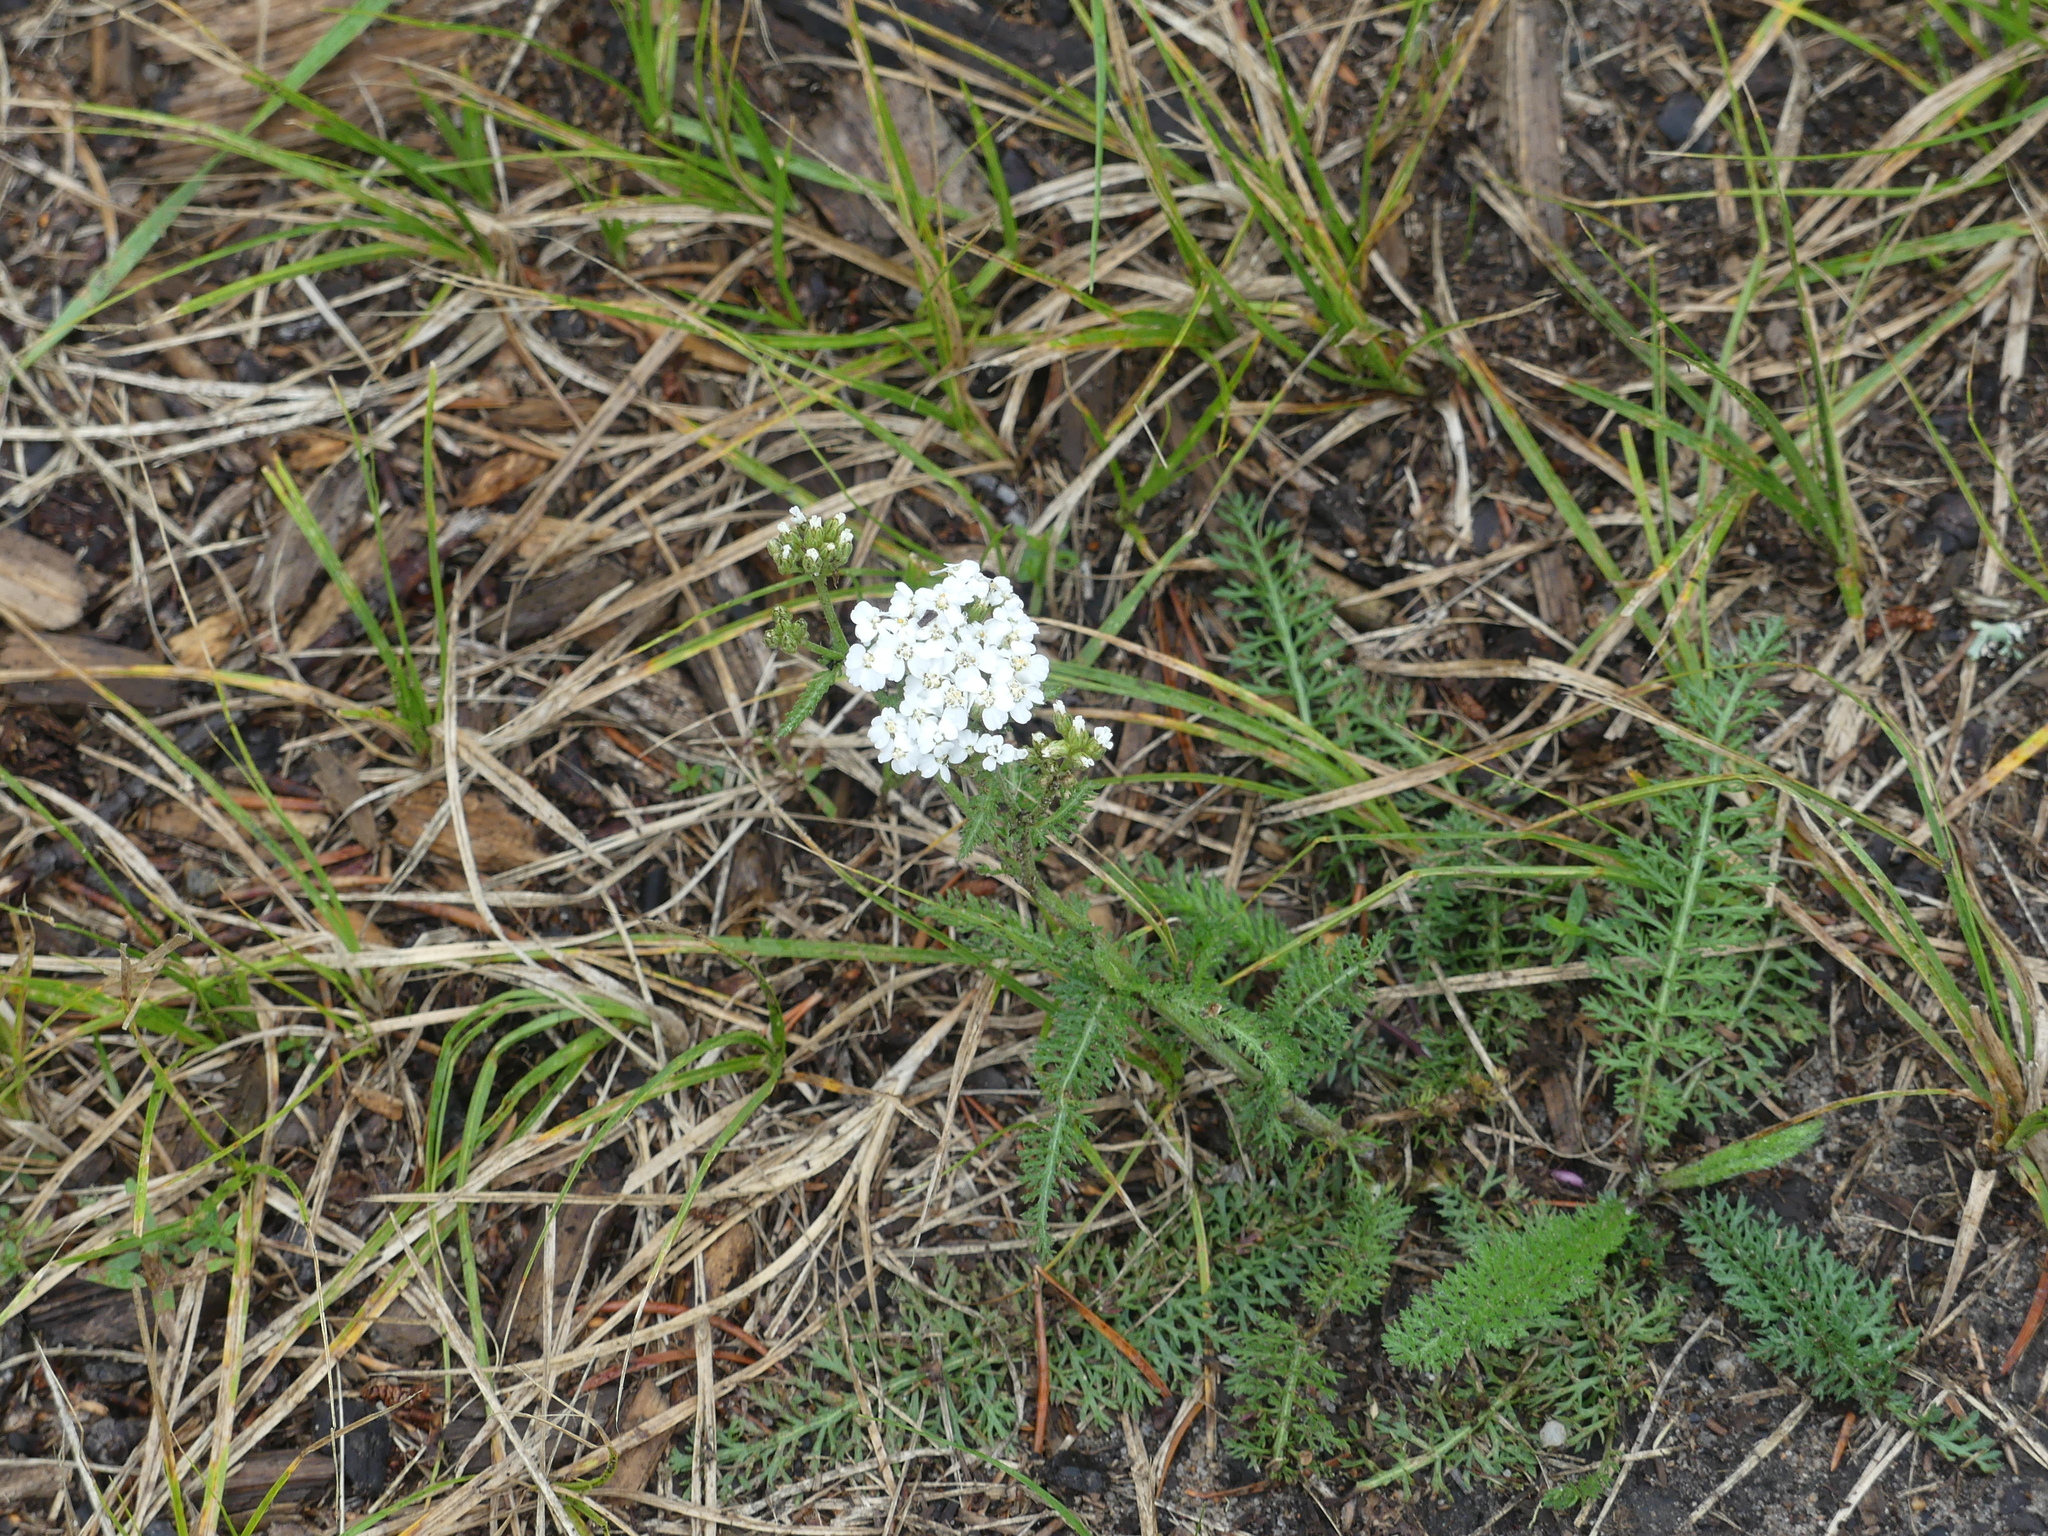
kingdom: Plantae
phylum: Tracheophyta
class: Magnoliopsida
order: Asterales
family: Asteraceae
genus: Achillea
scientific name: Achillea millefolium
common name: Yarrow
